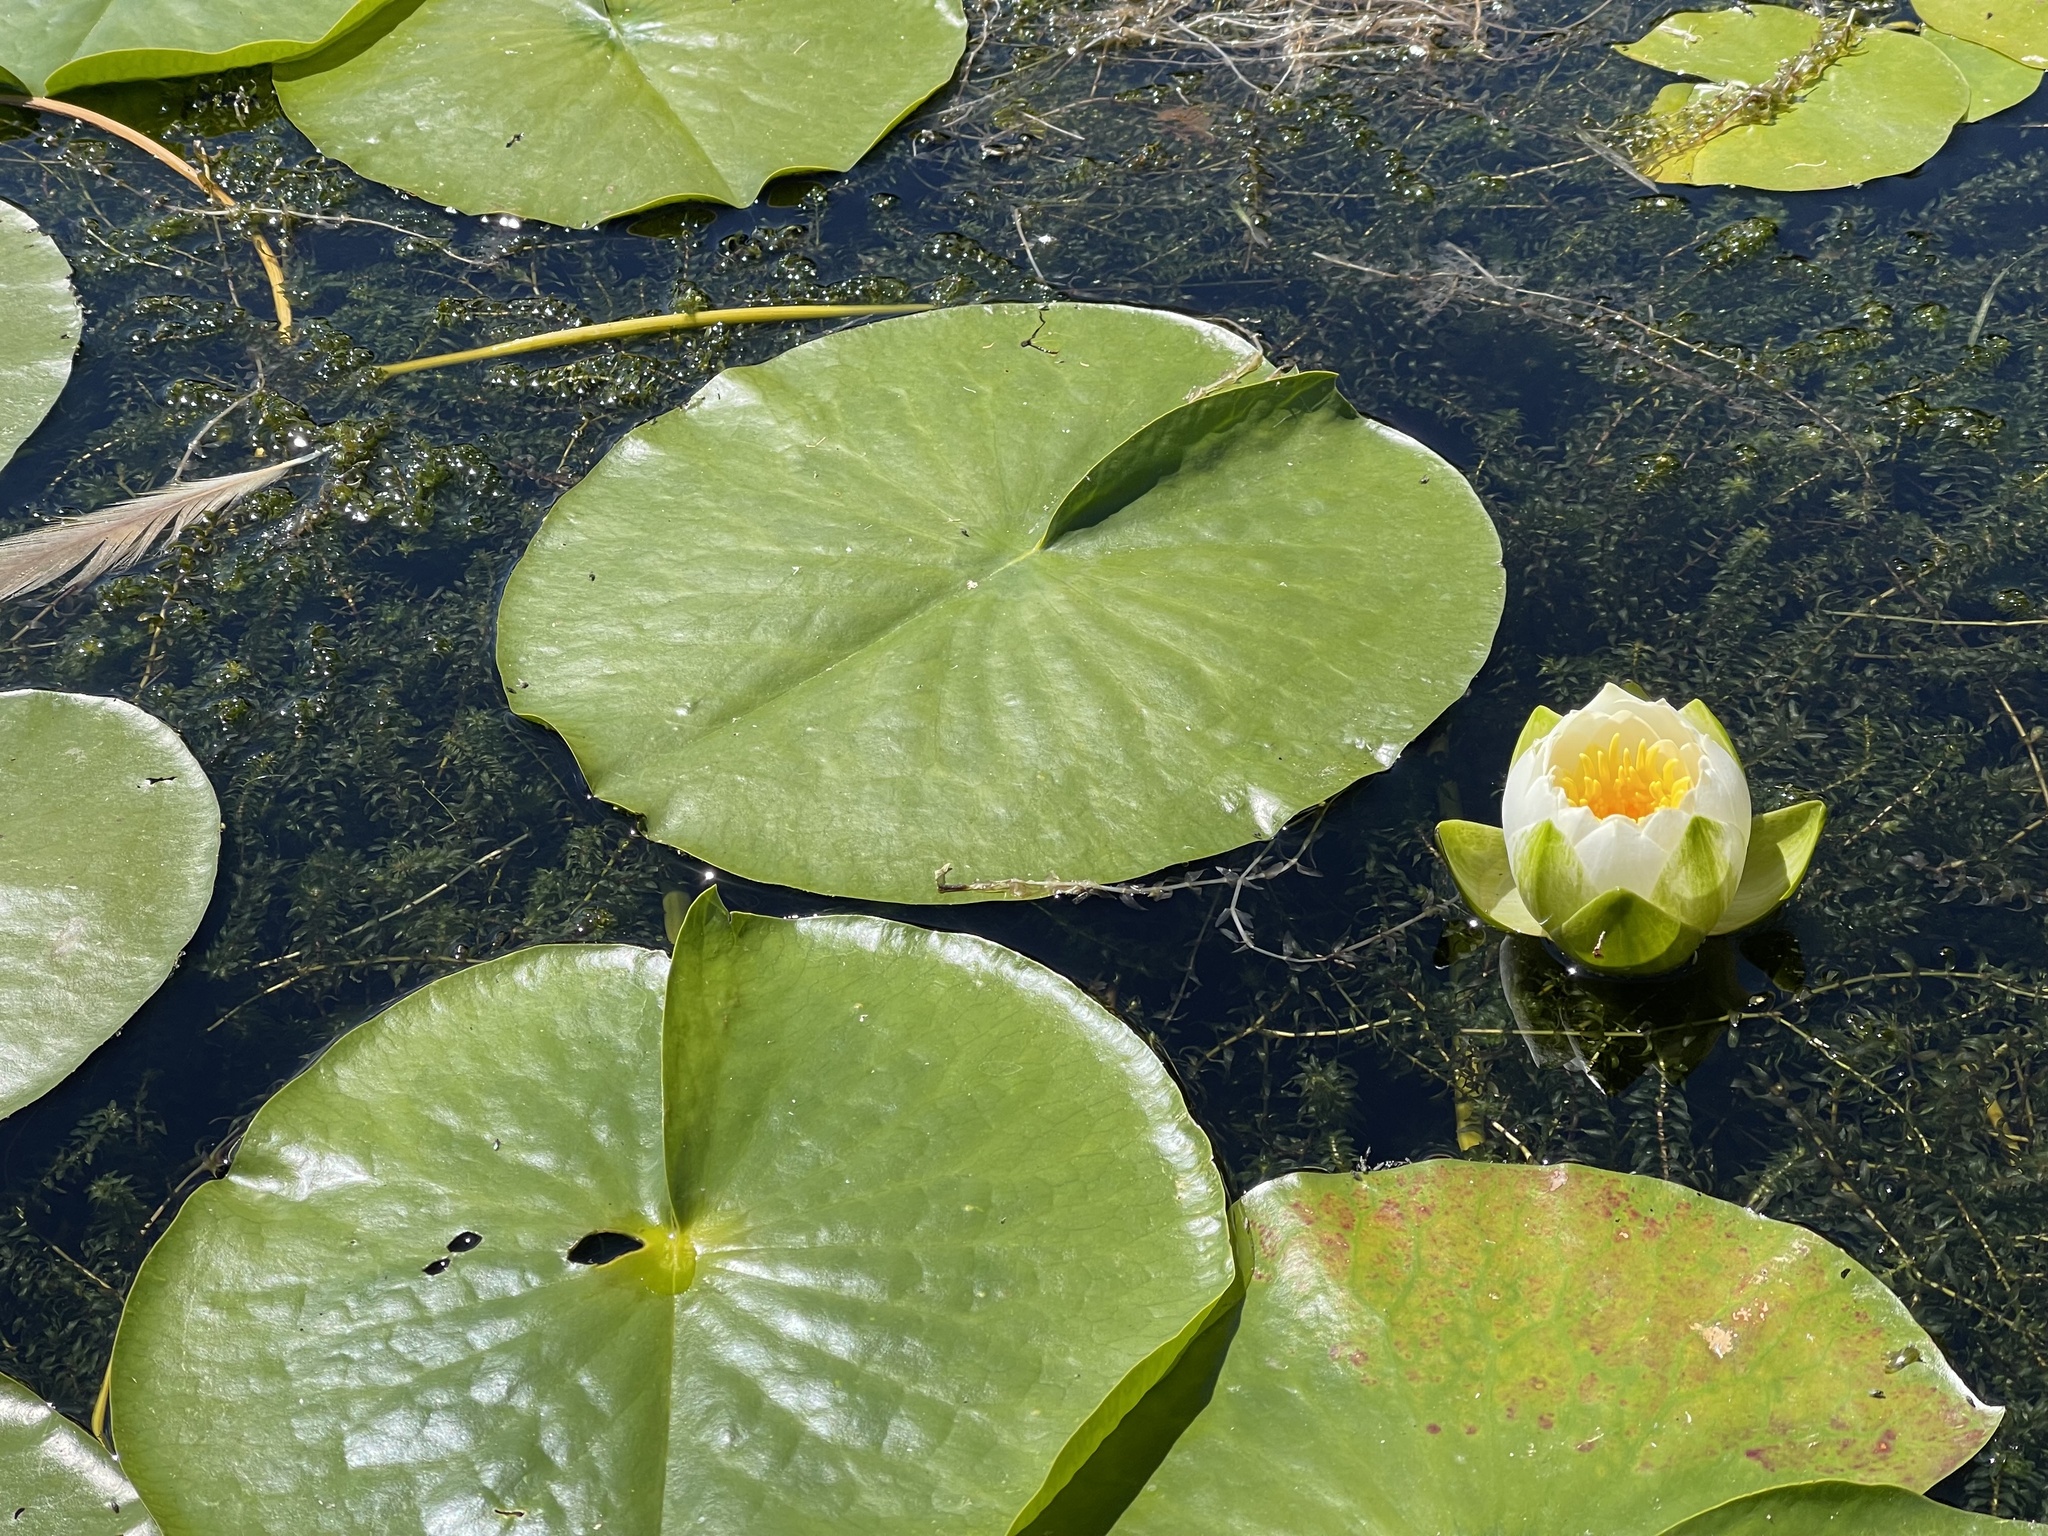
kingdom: Plantae
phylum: Tracheophyta
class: Magnoliopsida
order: Nymphaeales
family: Nymphaeaceae
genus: Nymphaea
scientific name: Nymphaea odorata
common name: Fragrant water-lily
